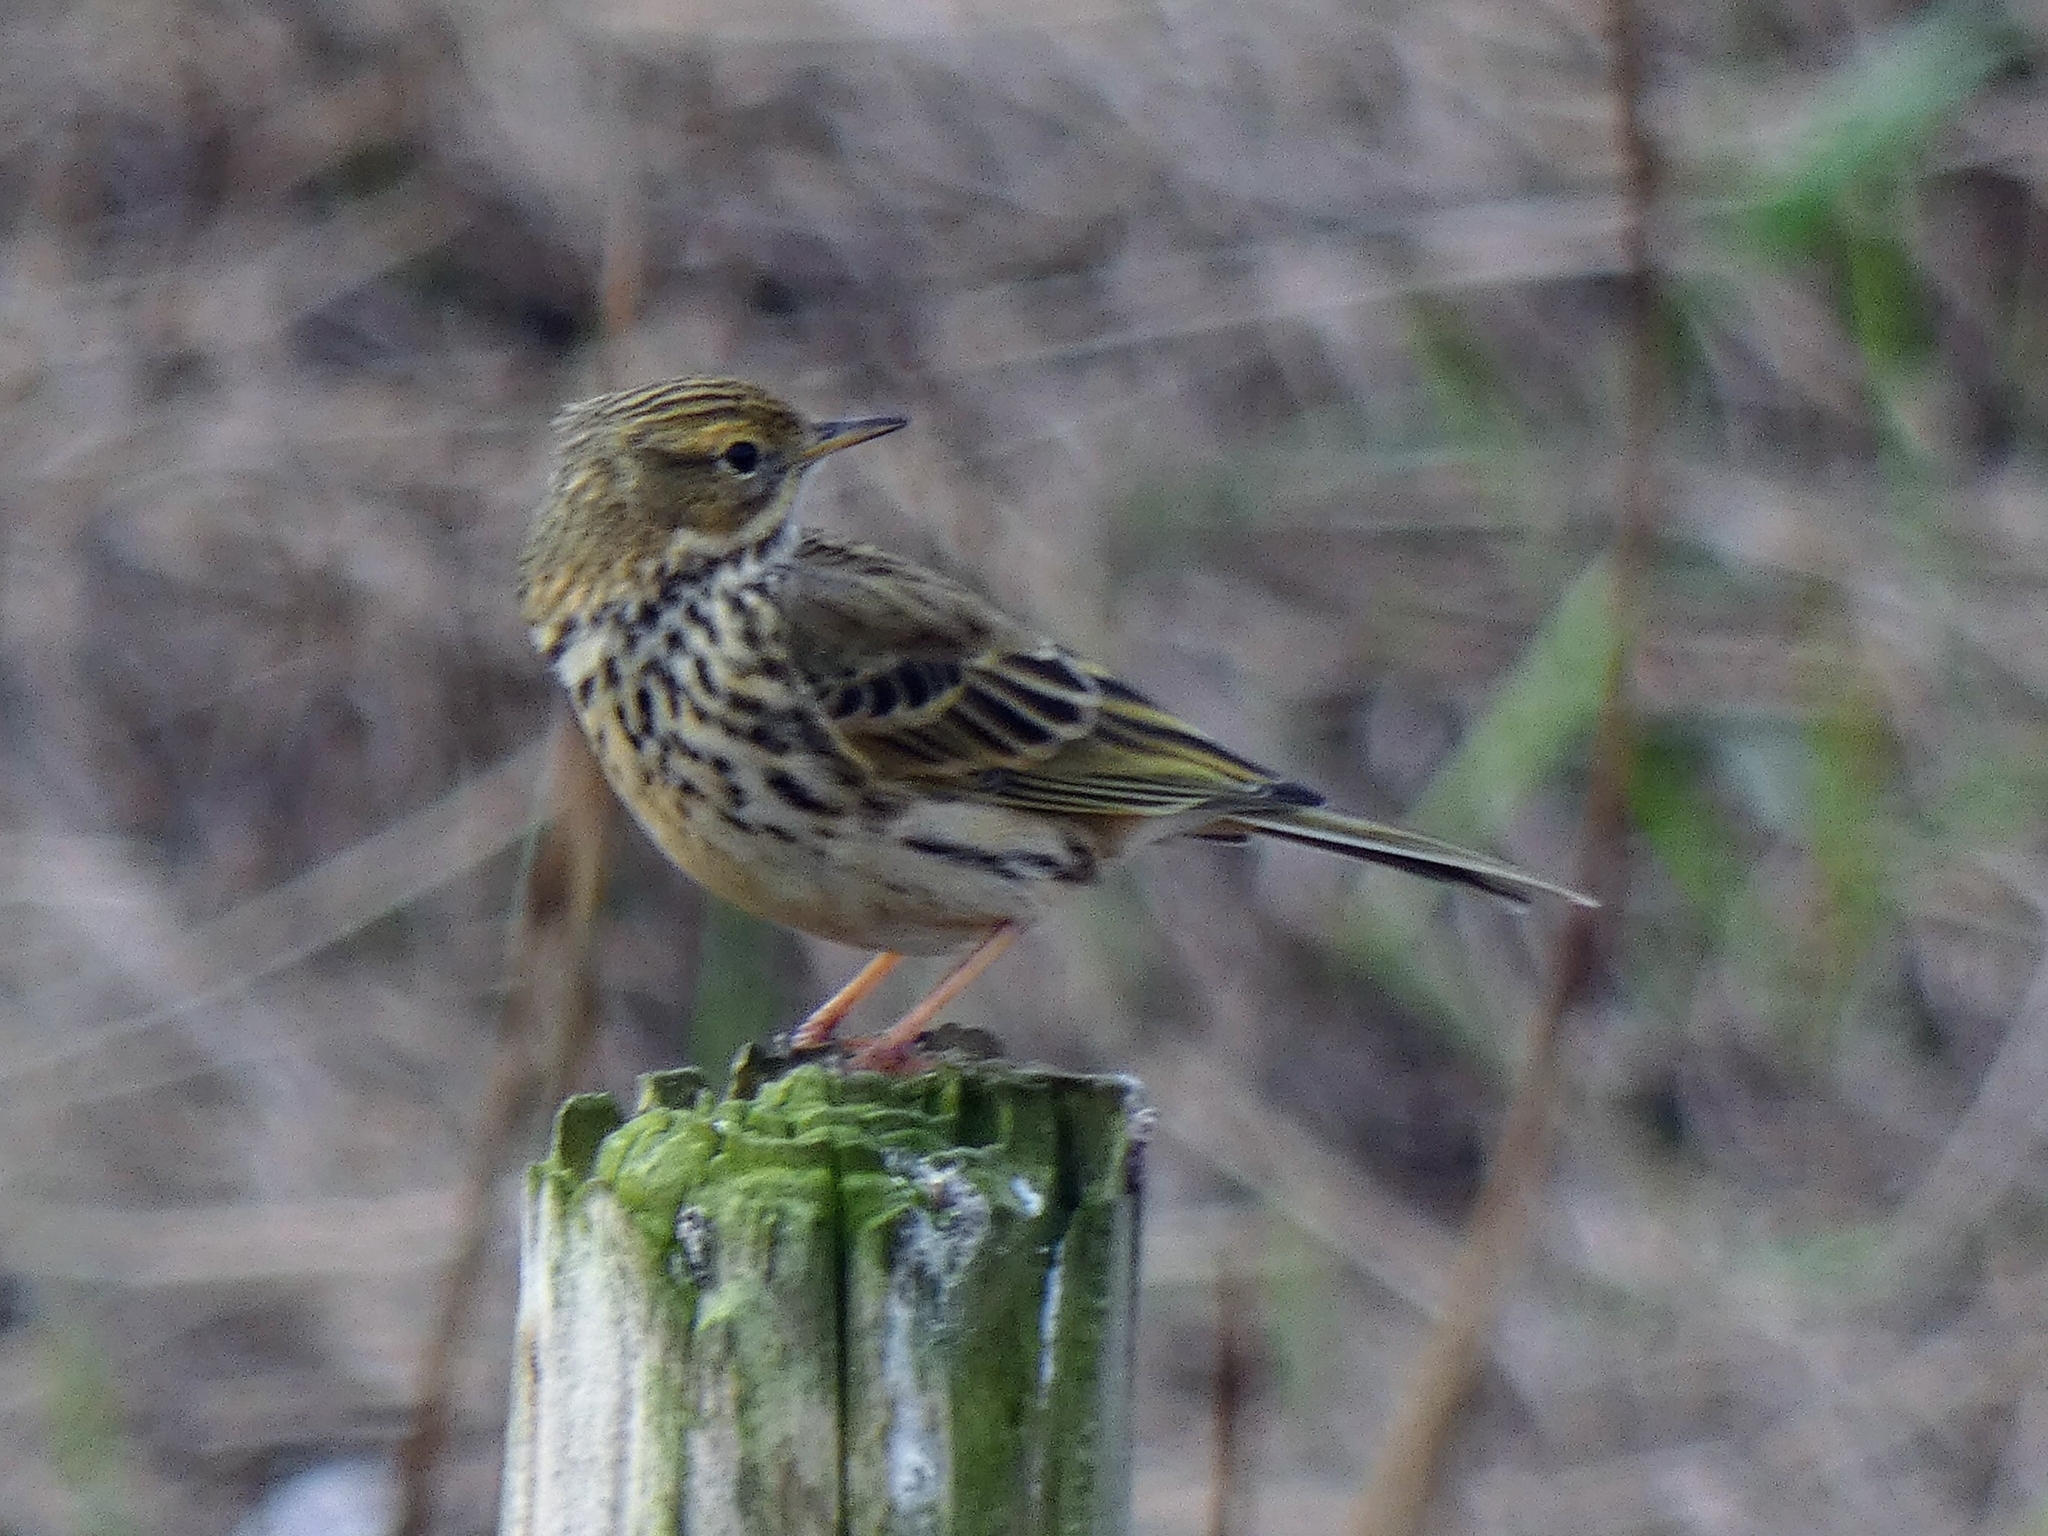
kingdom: Animalia
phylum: Chordata
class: Aves
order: Passeriformes
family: Motacillidae
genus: Anthus
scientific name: Anthus pratensis
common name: Meadow pipit
